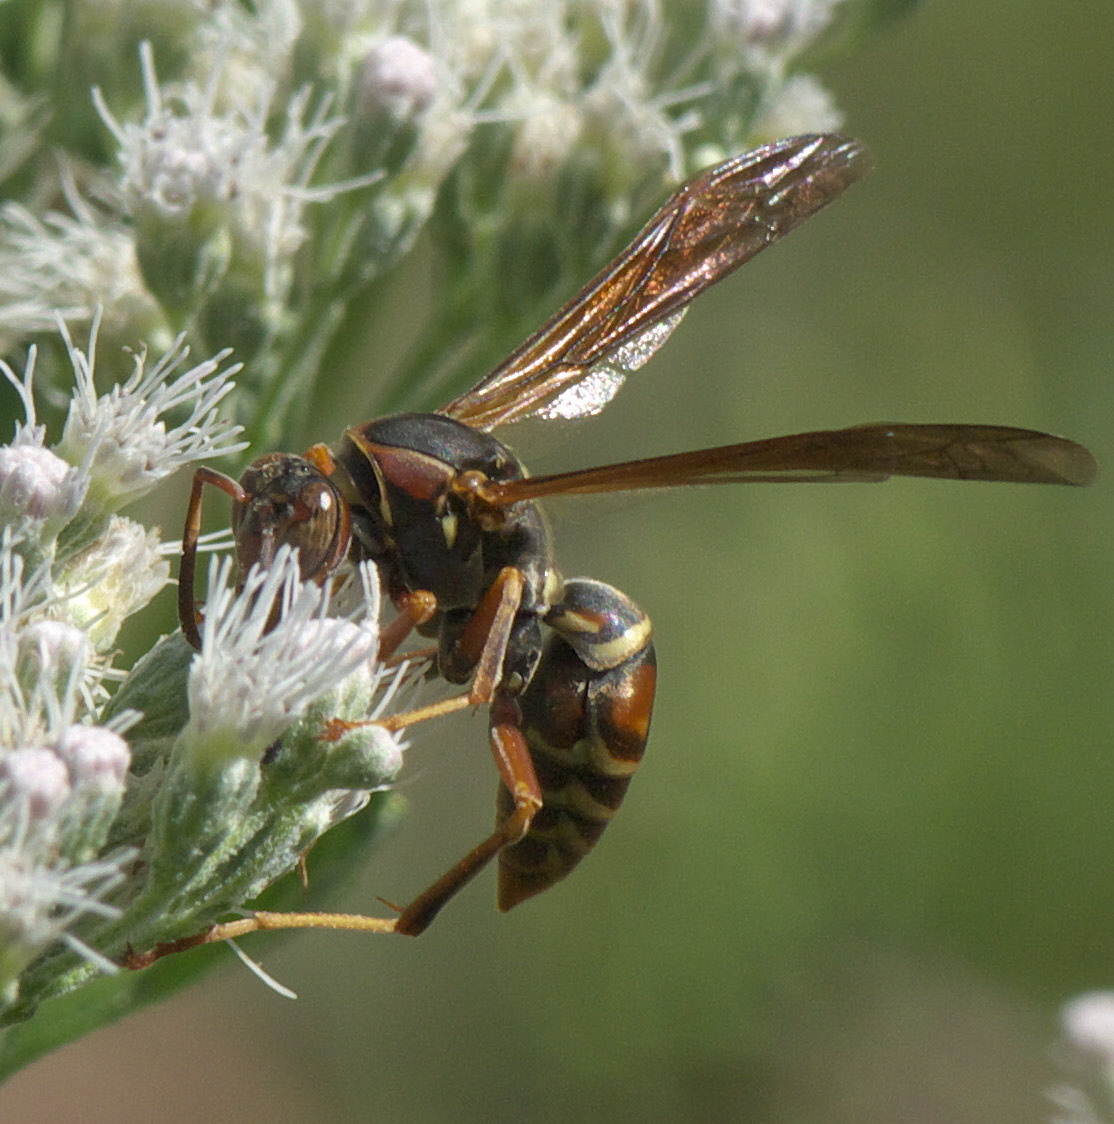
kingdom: Animalia
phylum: Arthropoda
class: Insecta
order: Hymenoptera
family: Eumenidae
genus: Polistes
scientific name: Polistes fuscatus
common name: Dark paper wasp
